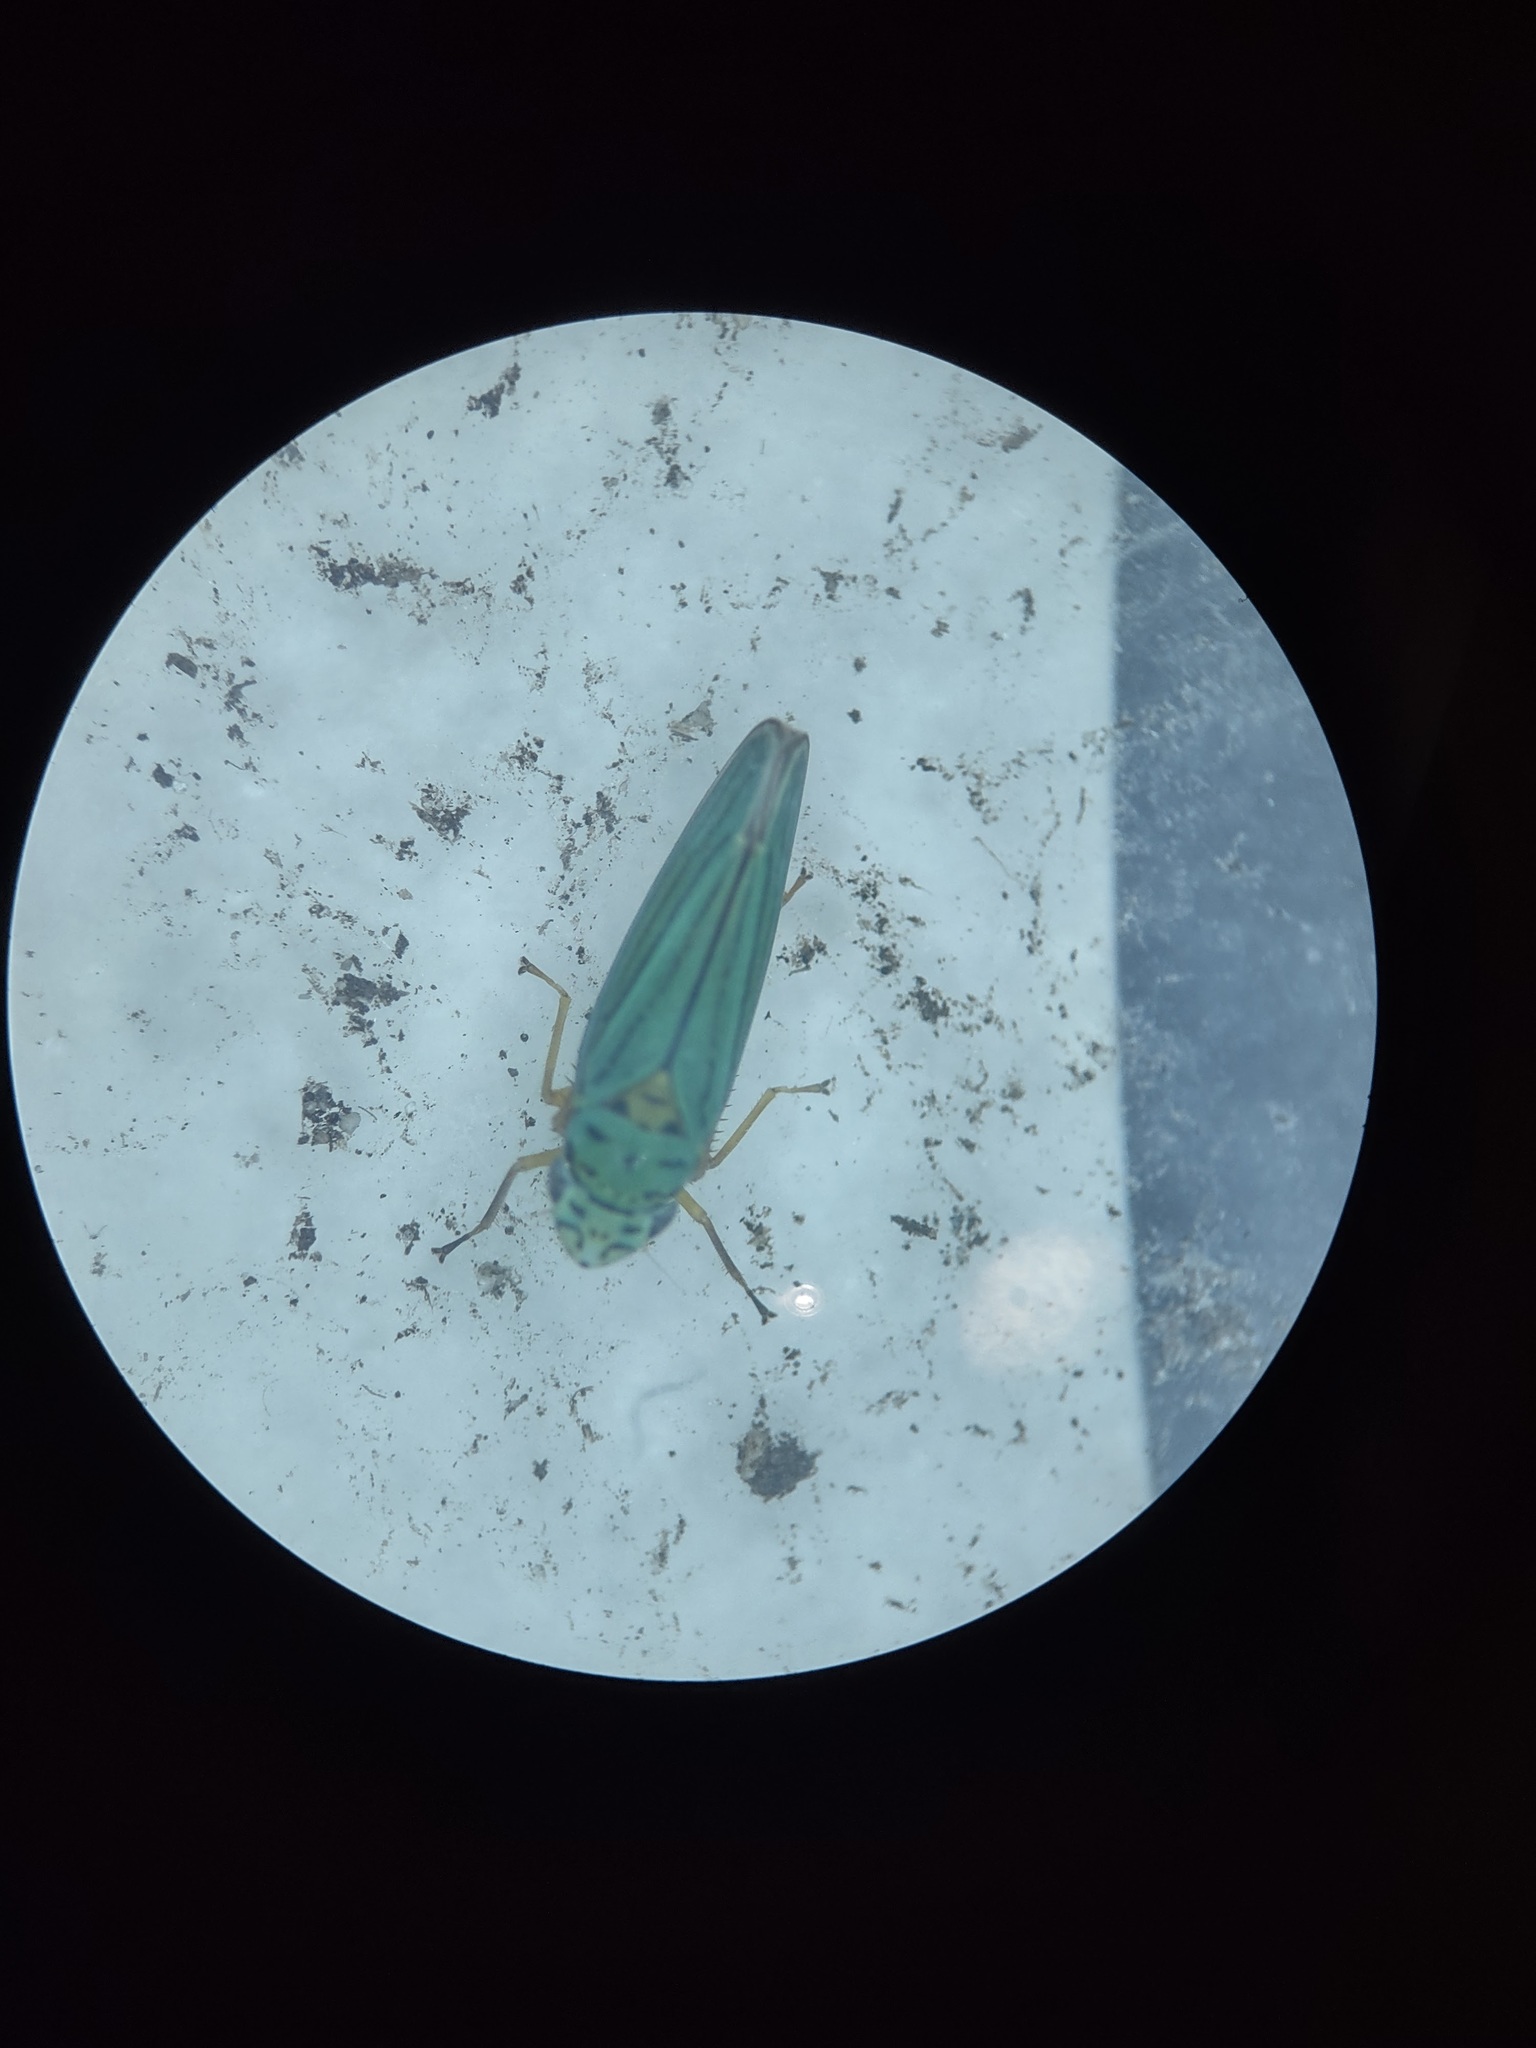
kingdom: Animalia
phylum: Arthropoda
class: Insecta
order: Hemiptera
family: Cicadellidae
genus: Graphocephala
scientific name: Graphocephala atropunctata
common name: Blue-green sharpshooter
